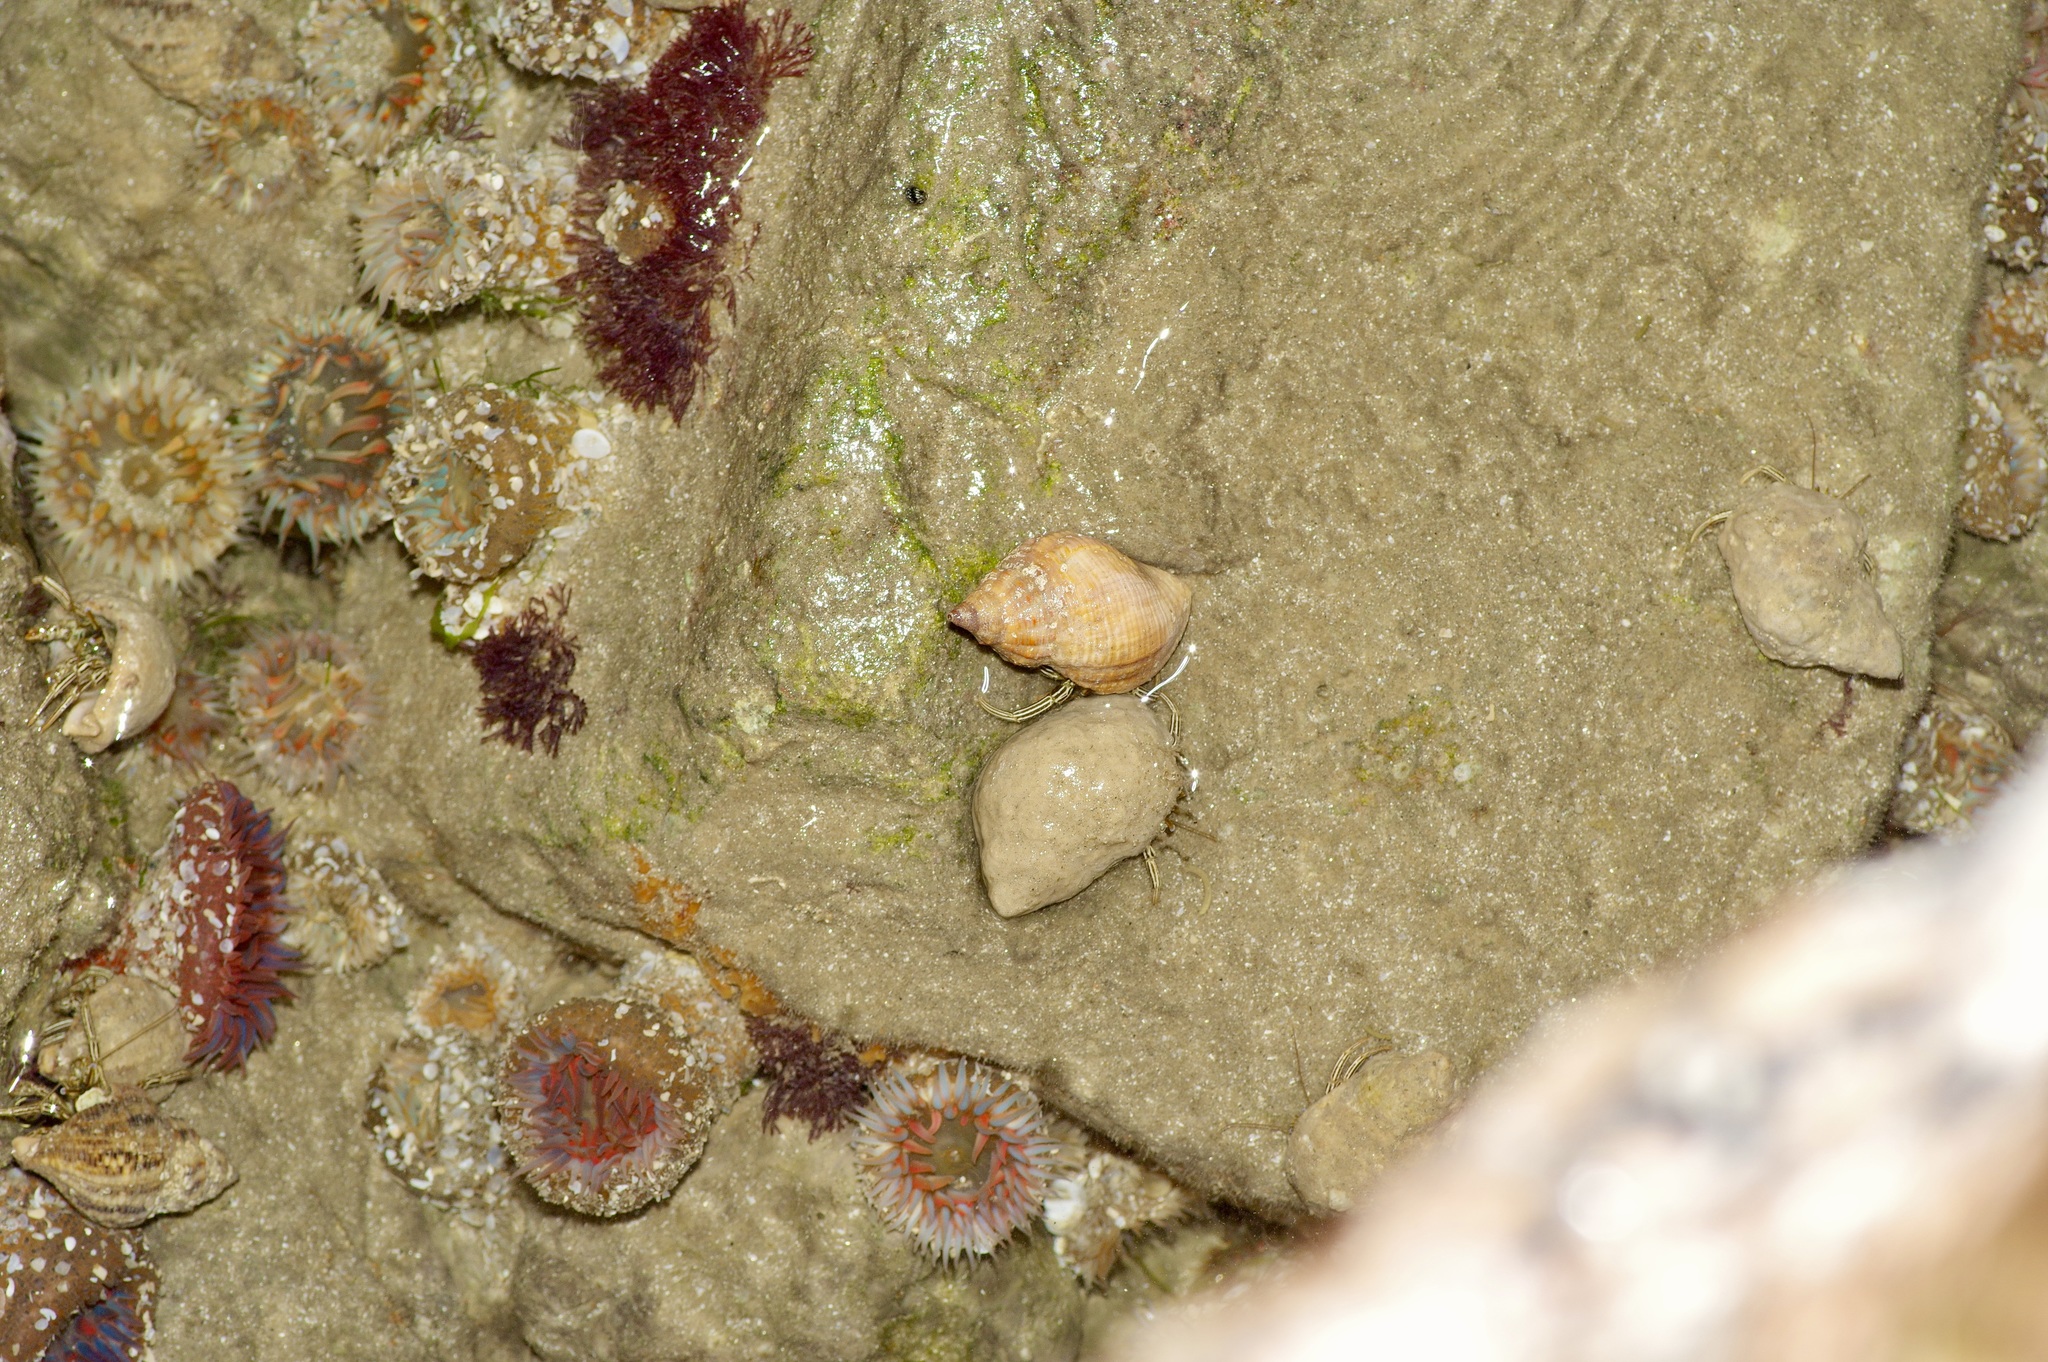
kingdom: Animalia
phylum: Arthropoda
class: Malacostraca
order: Decapoda
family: Diogenidae
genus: Clibanarius
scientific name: Clibanarius vittatus
